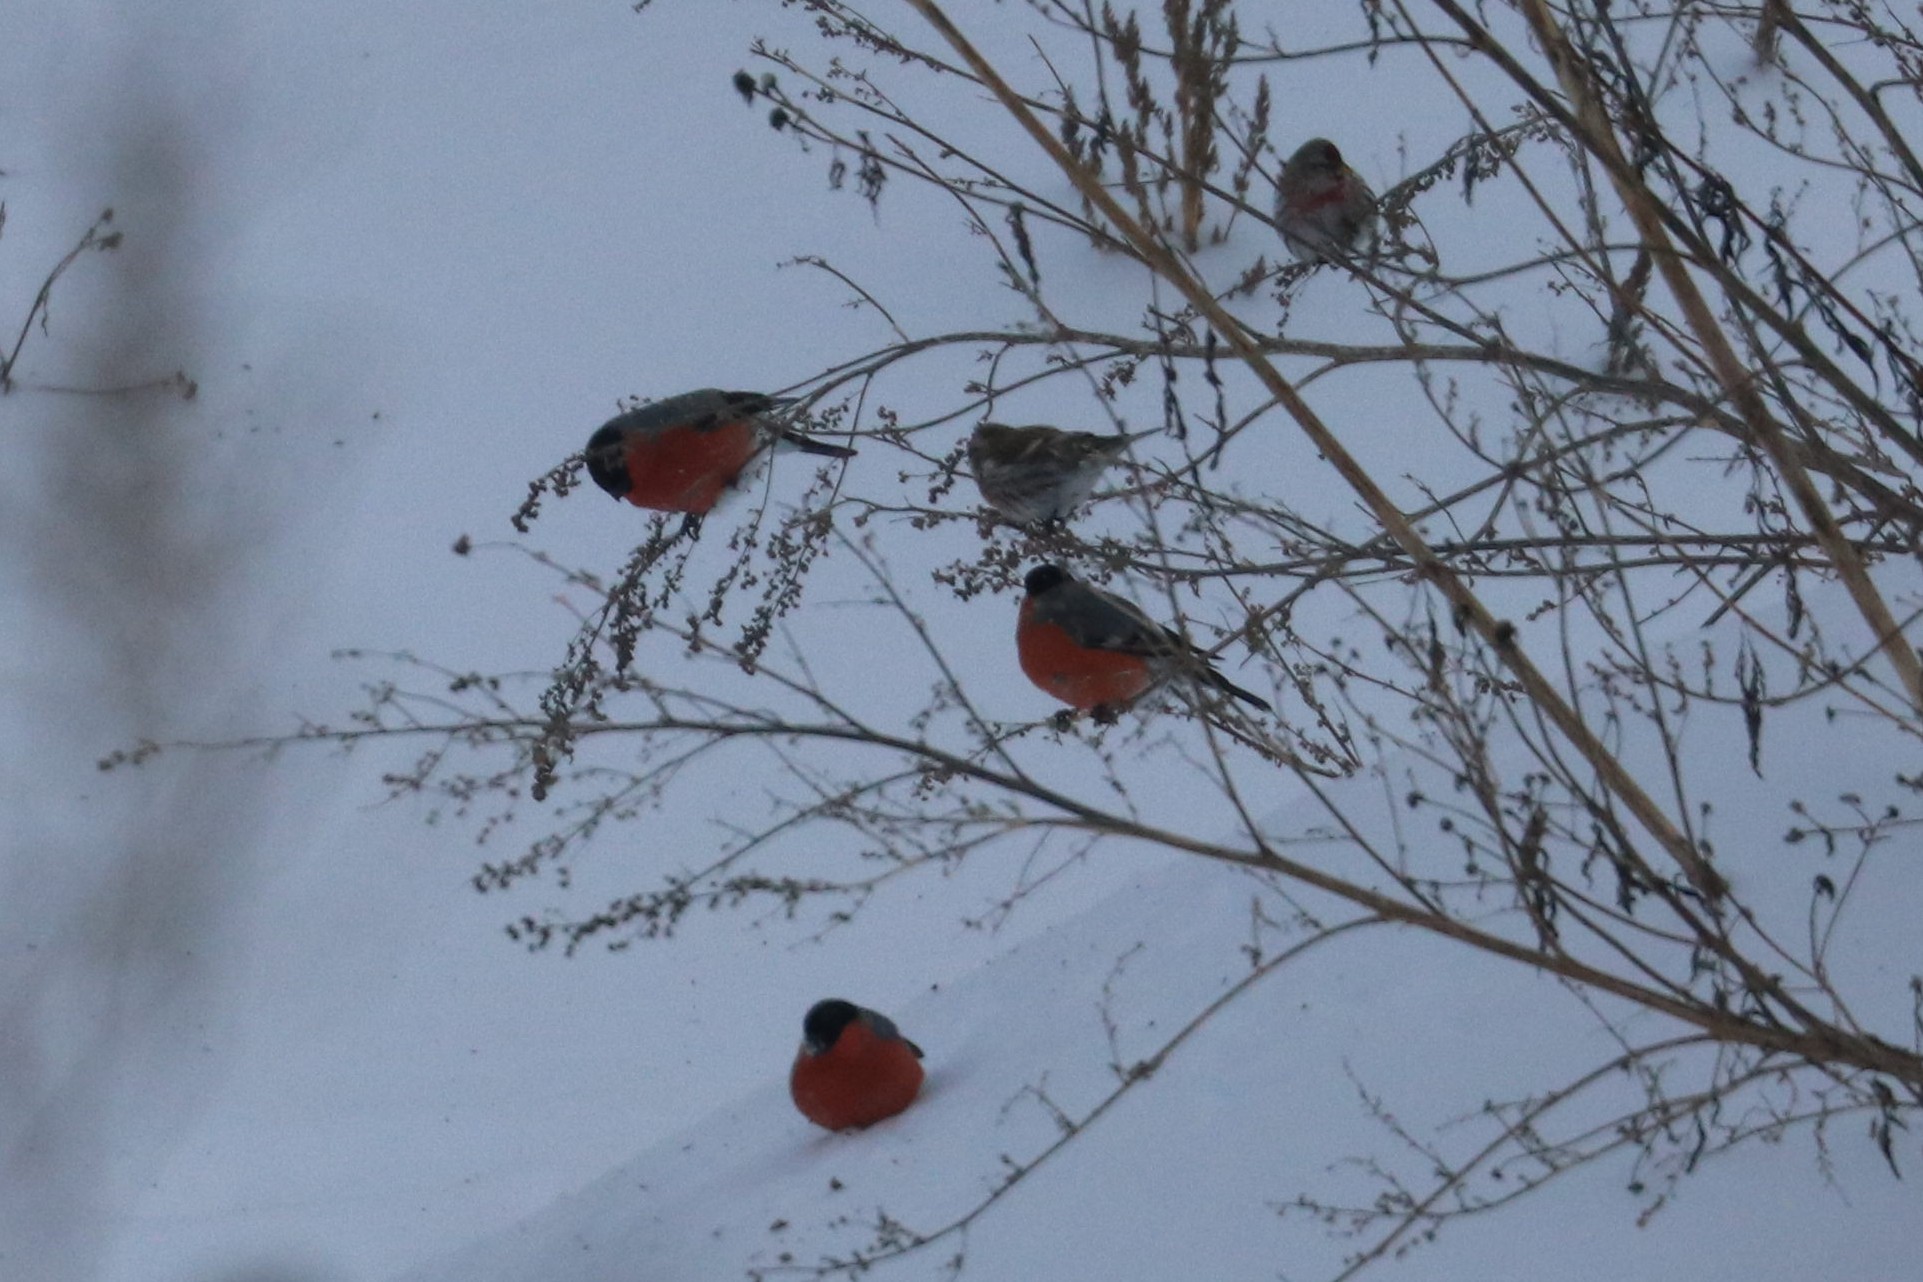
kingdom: Animalia
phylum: Chordata
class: Aves
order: Passeriformes
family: Fringillidae
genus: Pyrrhula
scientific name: Pyrrhula pyrrhula
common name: Eurasian bullfinch
